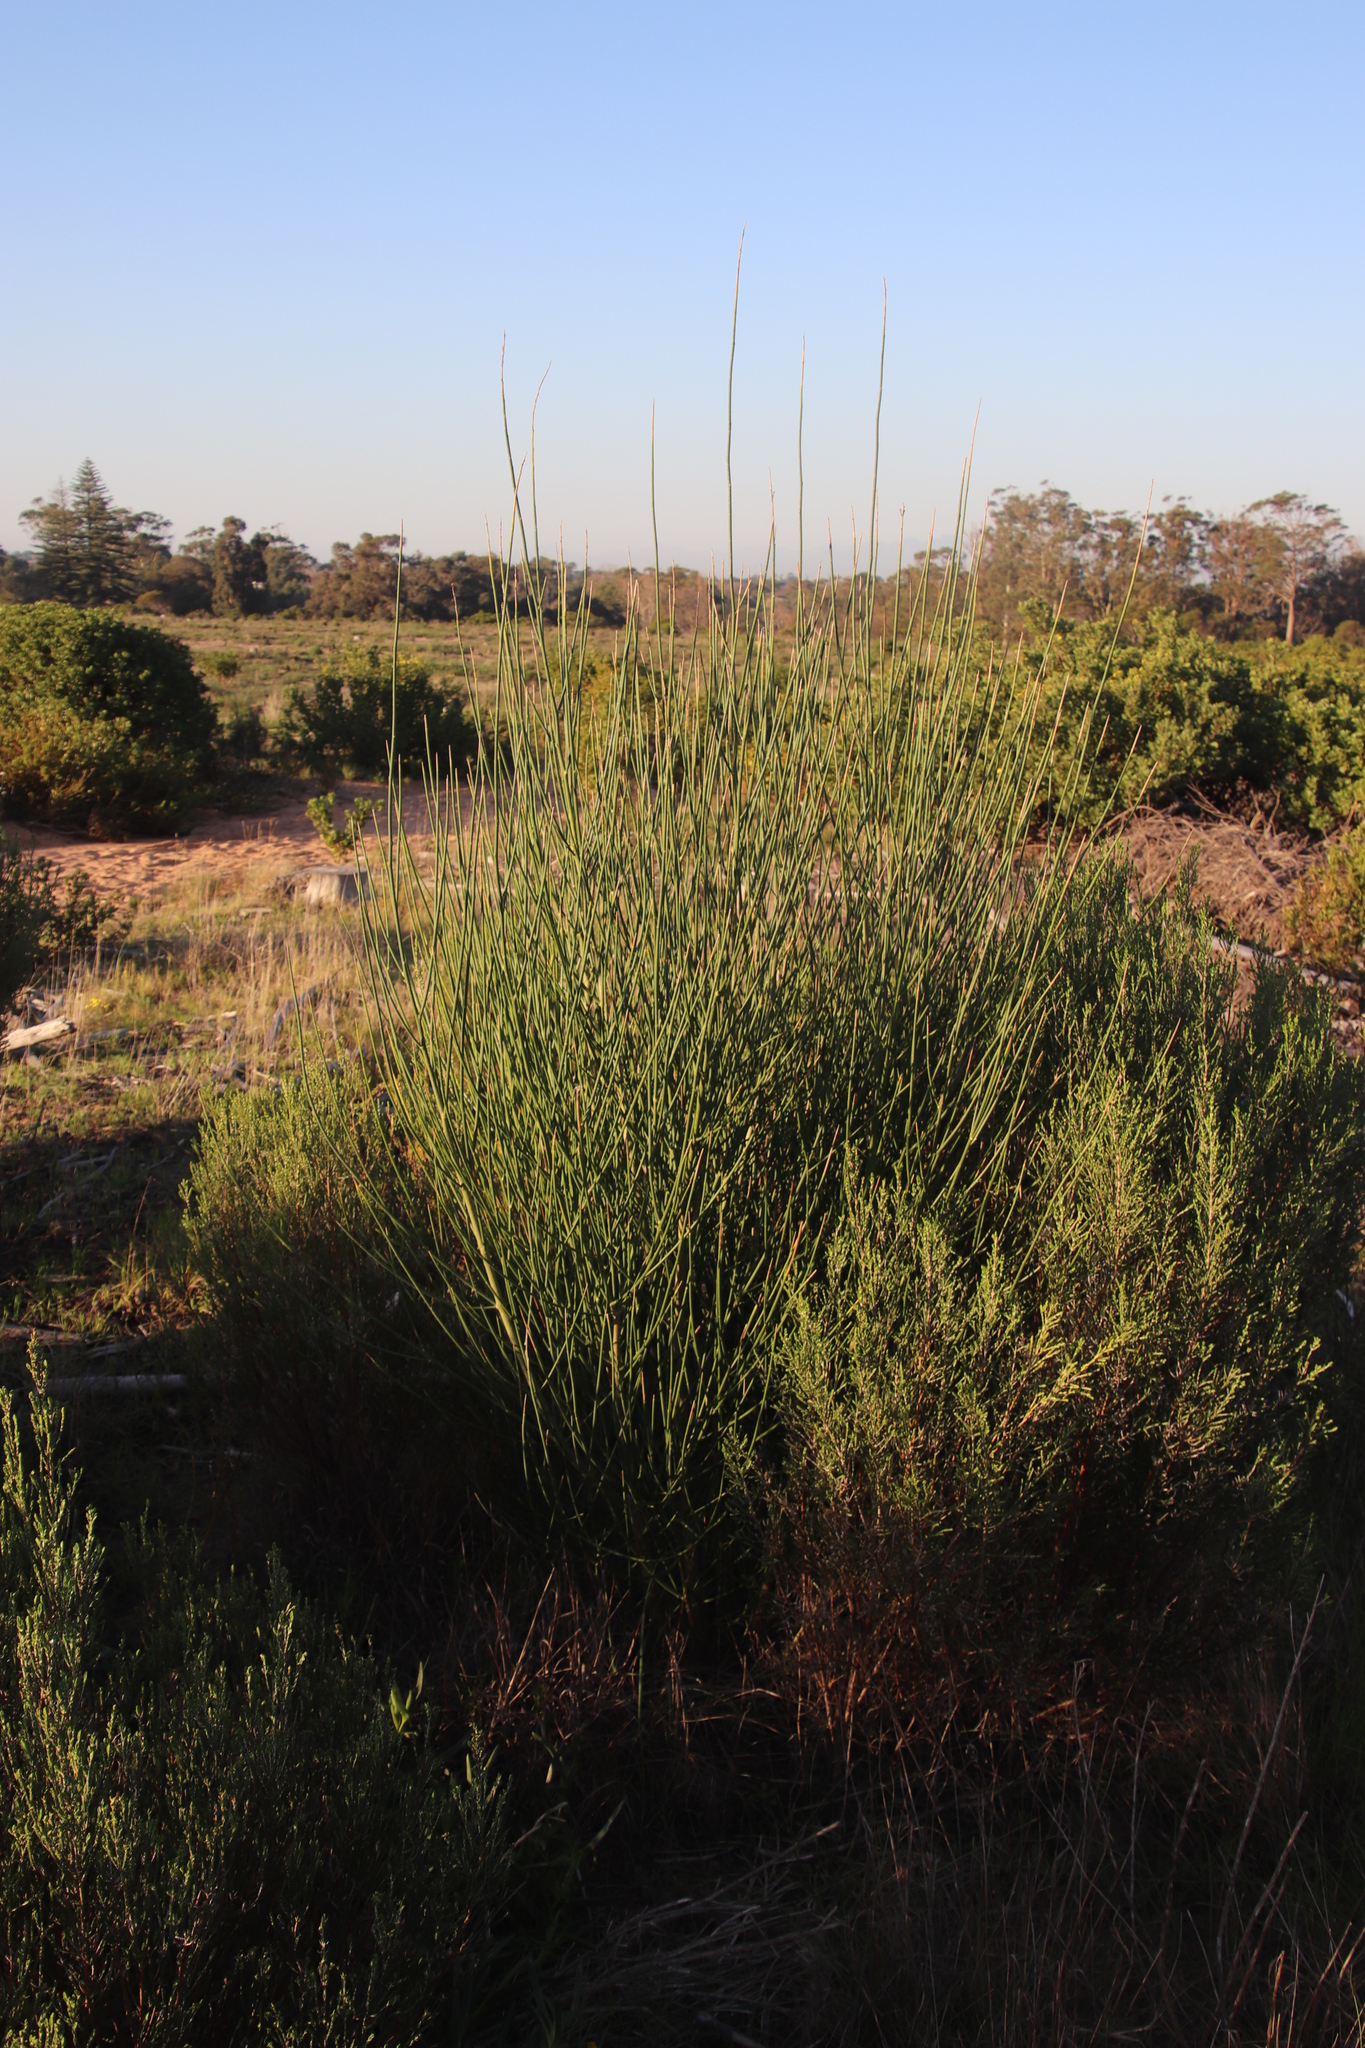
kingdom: Plantae
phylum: Tracheophyta
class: Magnoliopsida
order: Fabales
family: Fabaceae
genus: Spartium
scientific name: Spartium junceum
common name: Spanish broom
